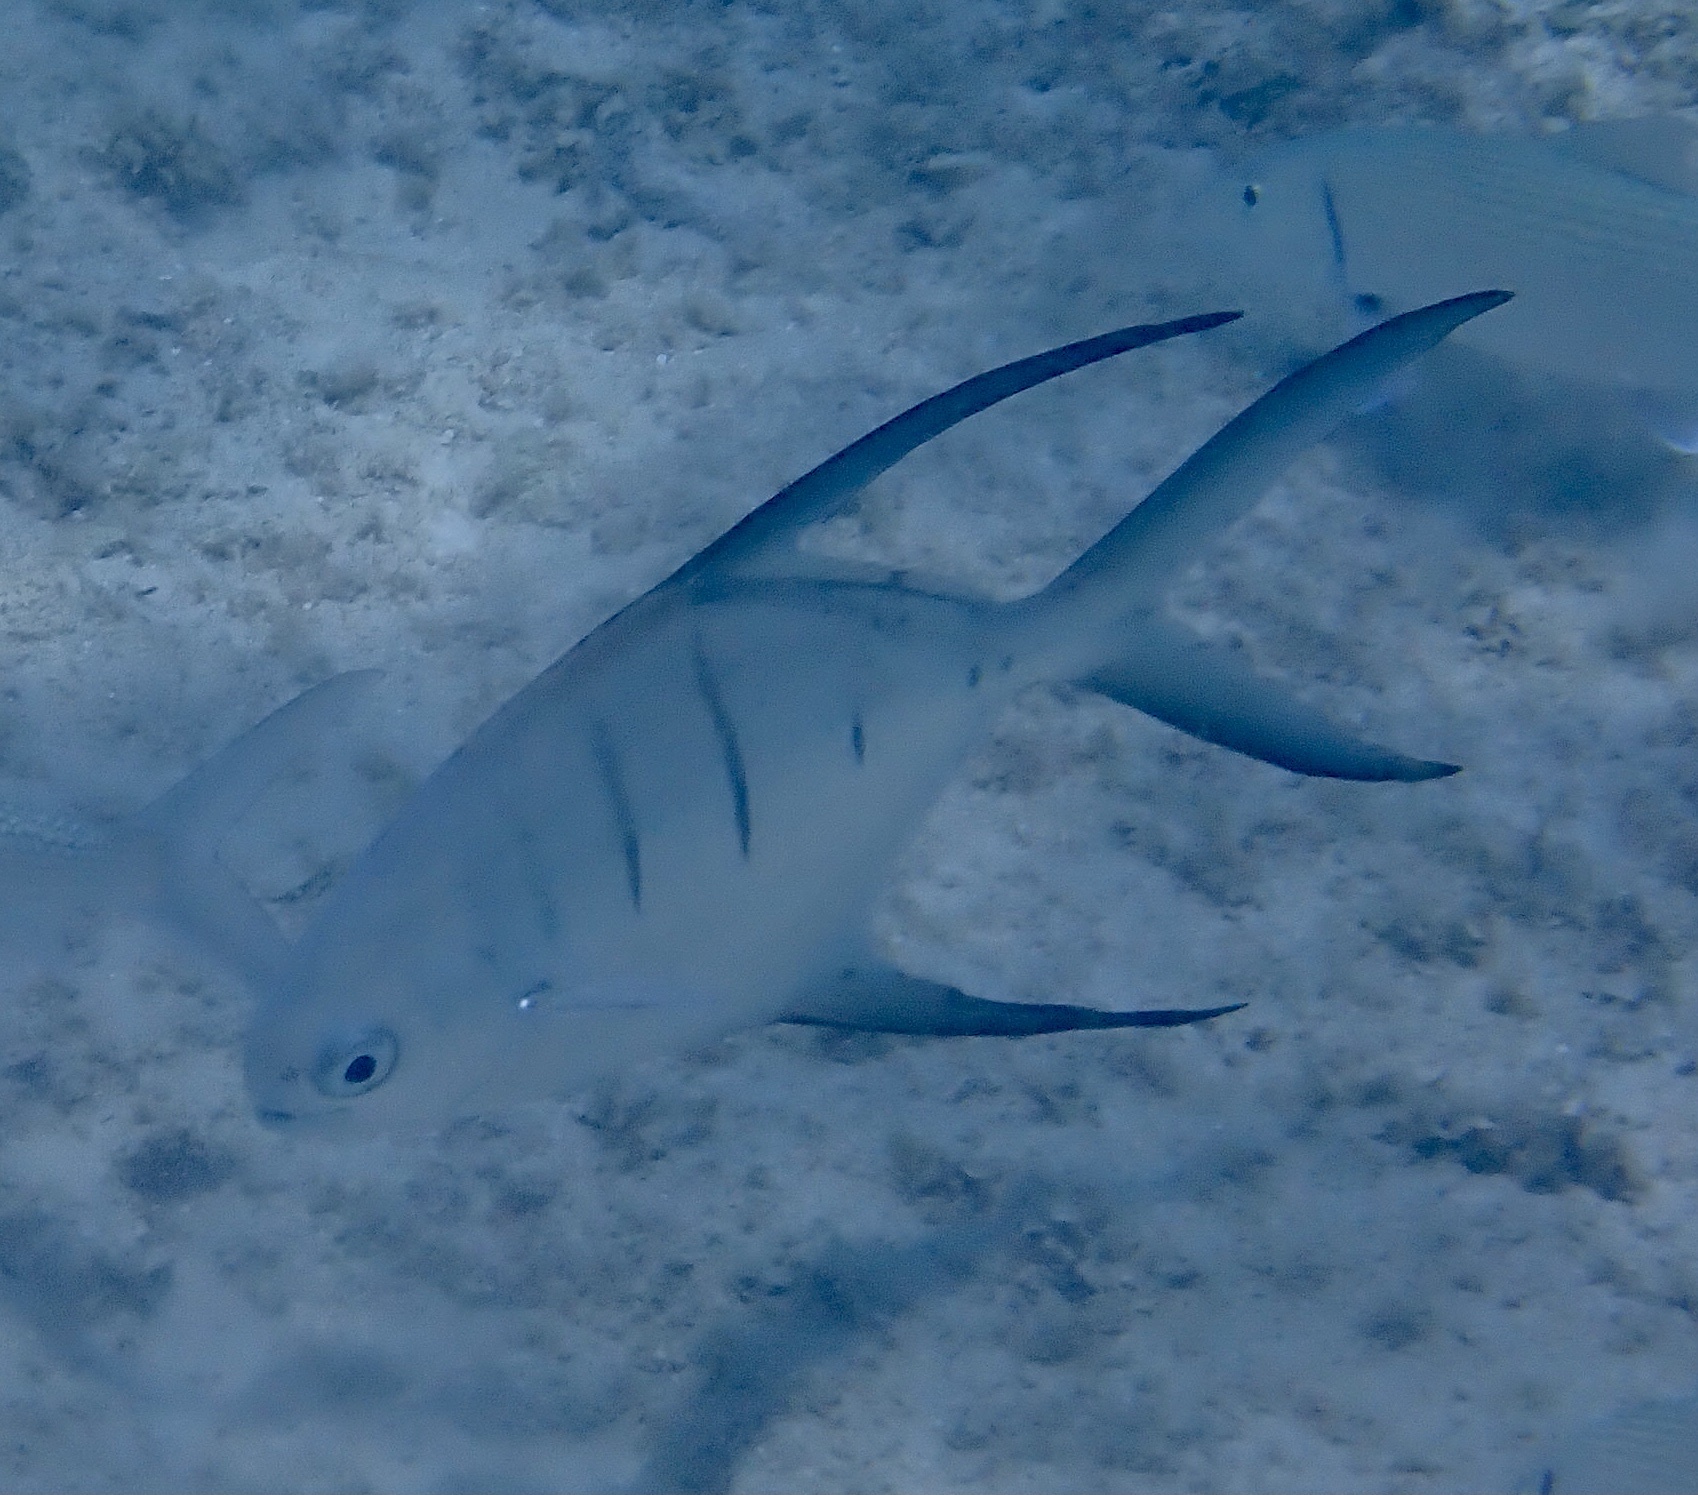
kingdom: Animalia
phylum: Chordata
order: Perciformes
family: Carangidae
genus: Trachinotus
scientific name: Trachinotus goodei
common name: Palometa
